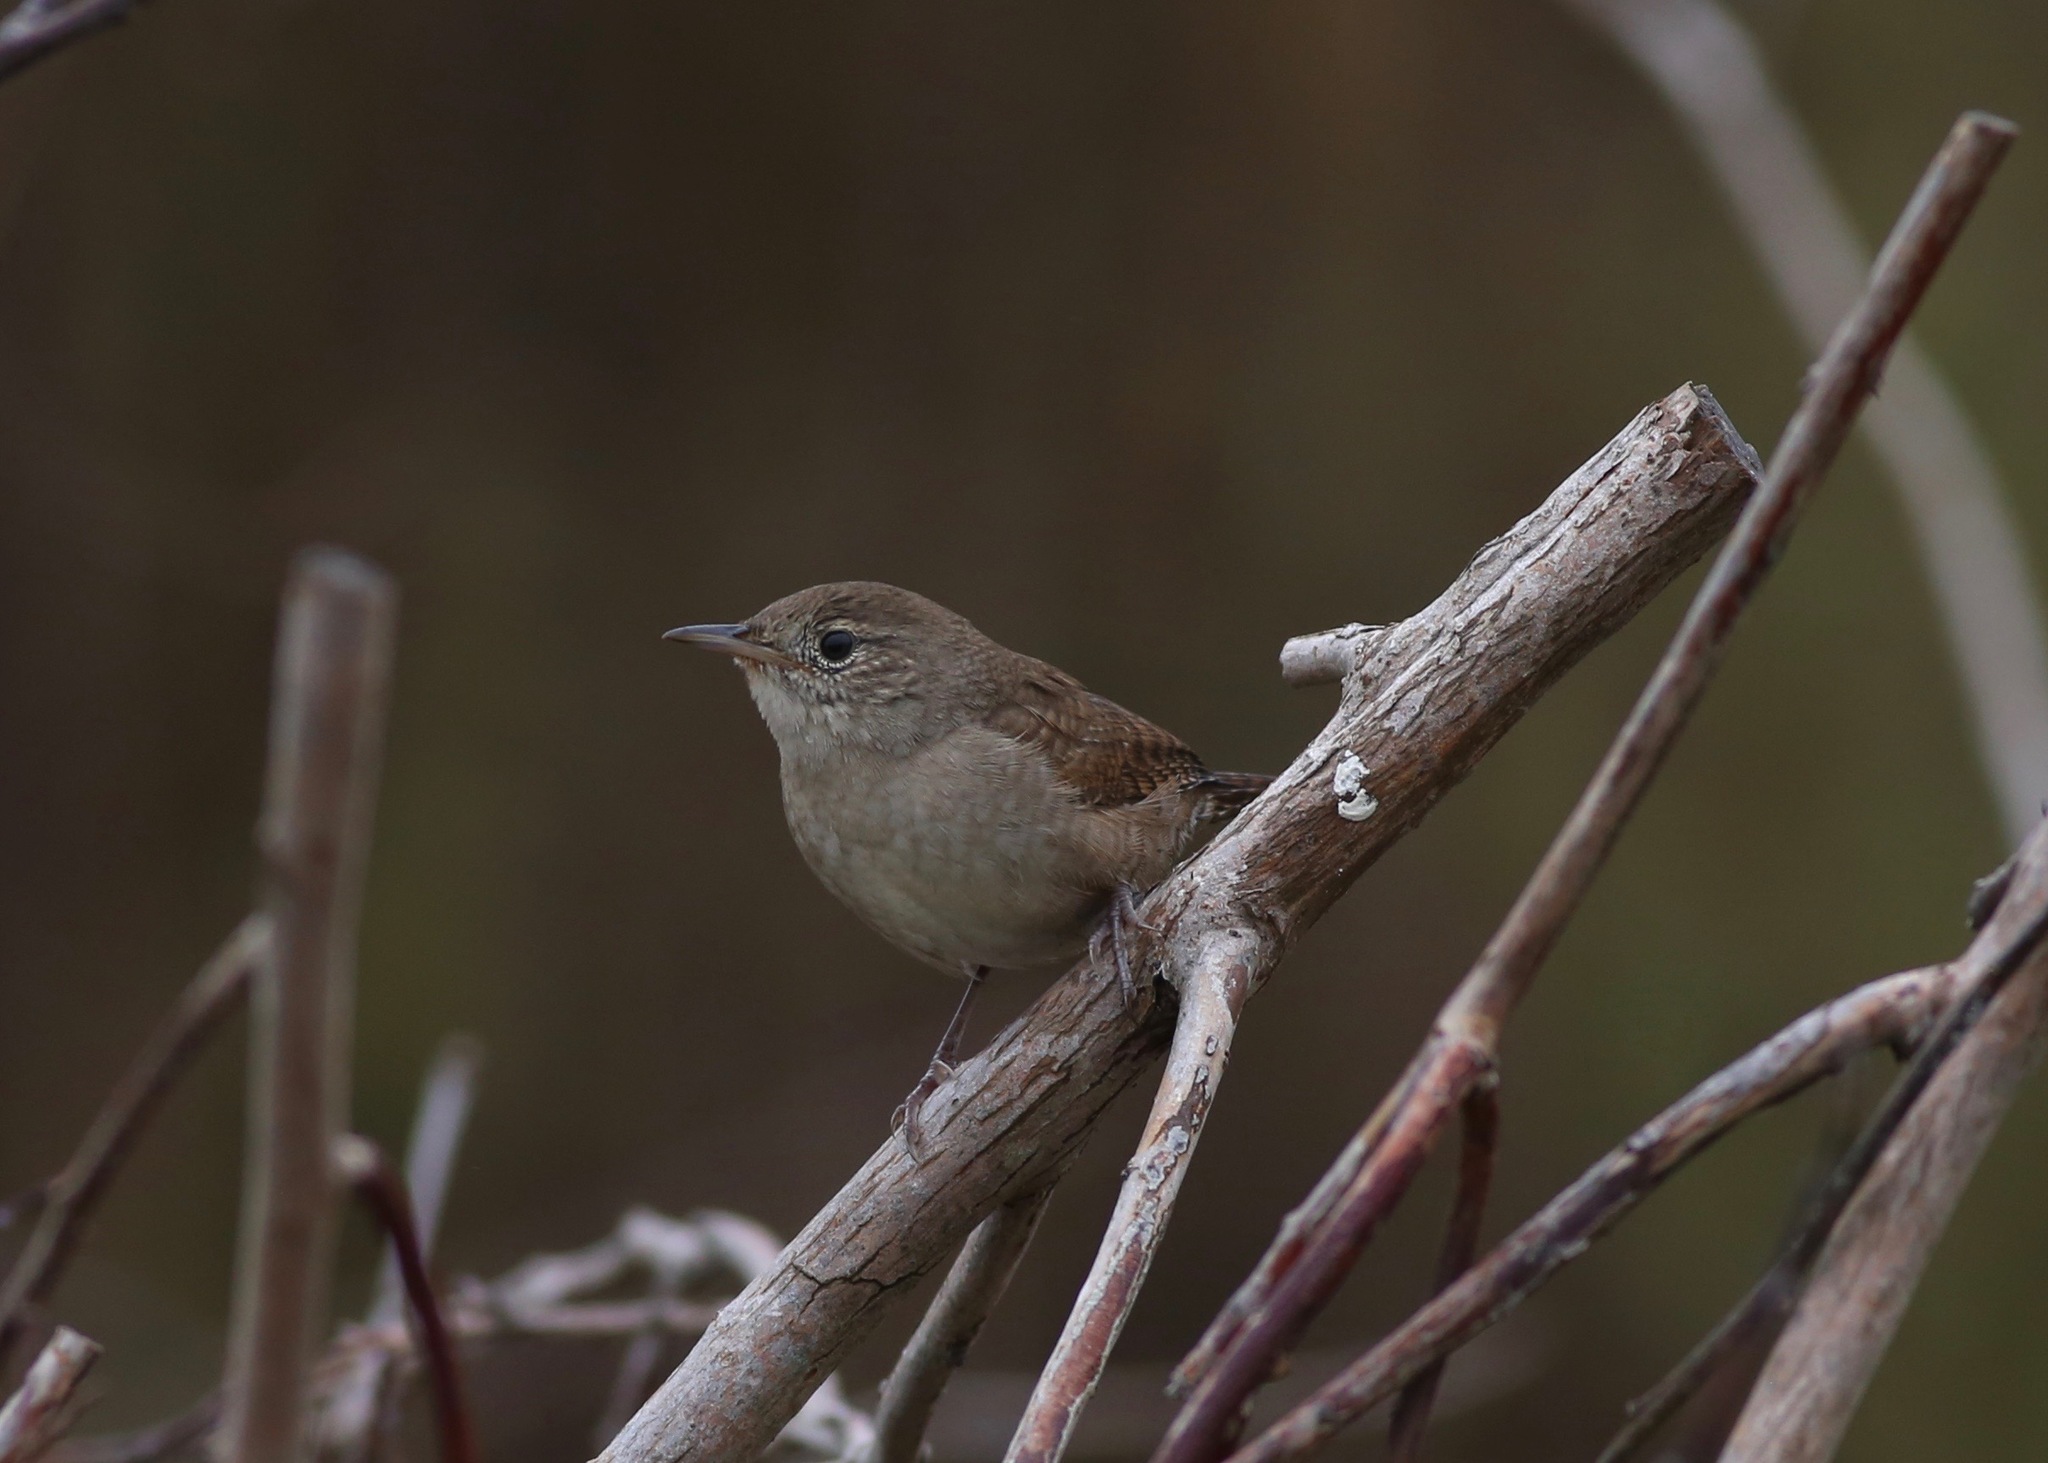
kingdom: Animalia
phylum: Chordata
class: Aves
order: Passeriformes
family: Troglodytidae
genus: Troglodytes
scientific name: Troglodytes aedon
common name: House wren
